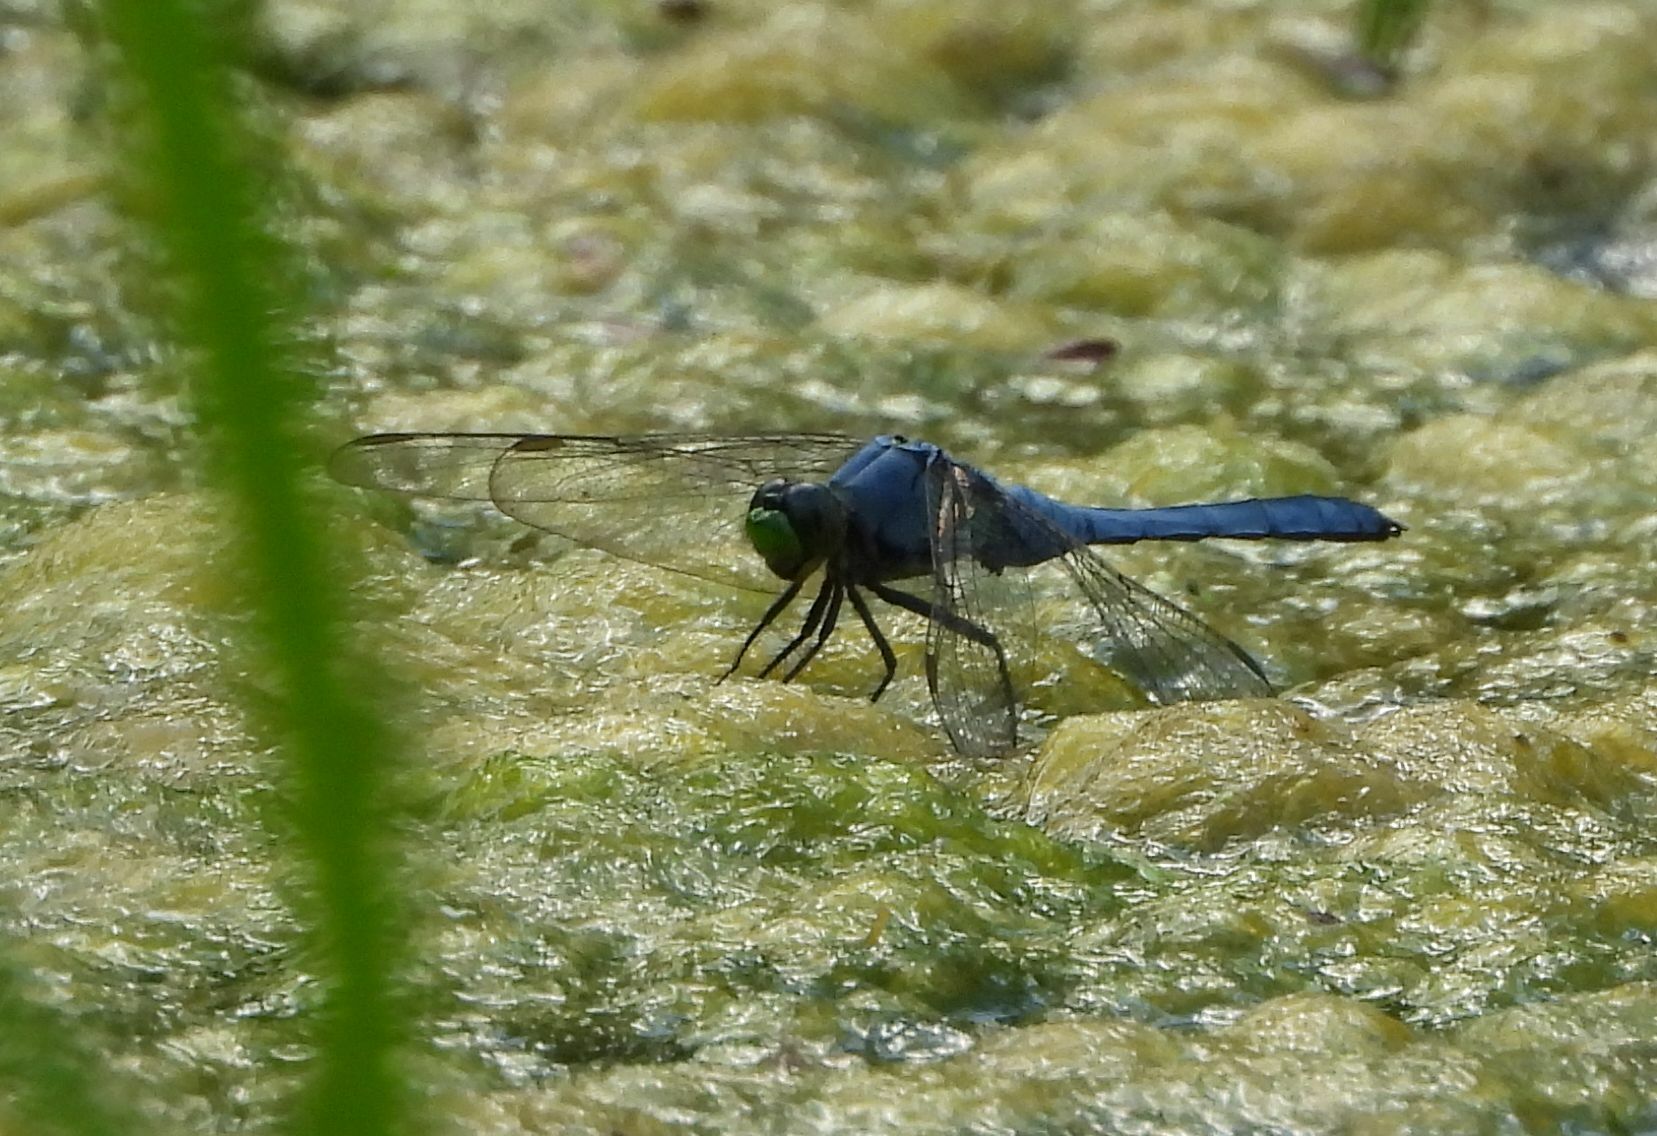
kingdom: Animalia
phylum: Arthropoda
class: Insecta
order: Odonata
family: Libellulidae
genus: Erythemis
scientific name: Erythemis simplicicollis
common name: Eastern pondhawk
